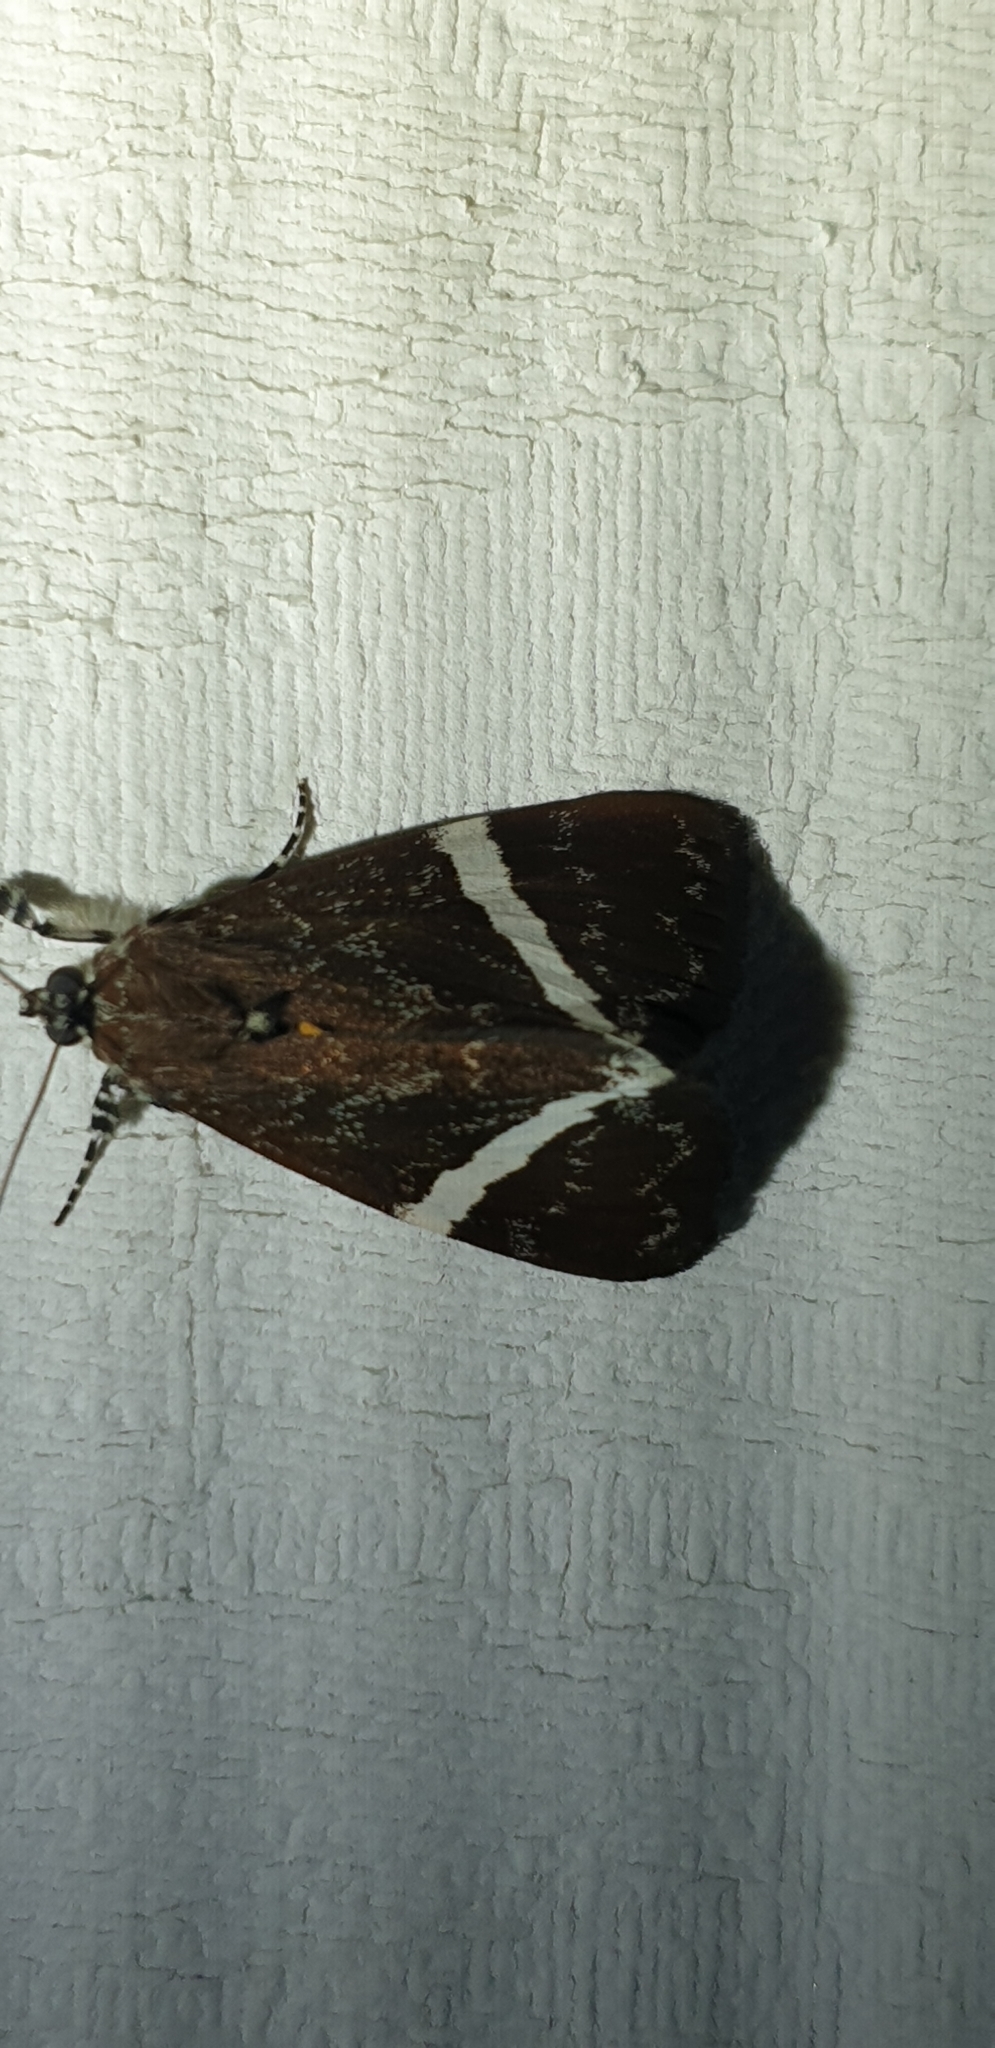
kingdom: Animalia
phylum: Arthropoda
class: Insecta
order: Lepidoptera
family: Noctuidae
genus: Coenotoca
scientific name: Coenotoca subaspersa
